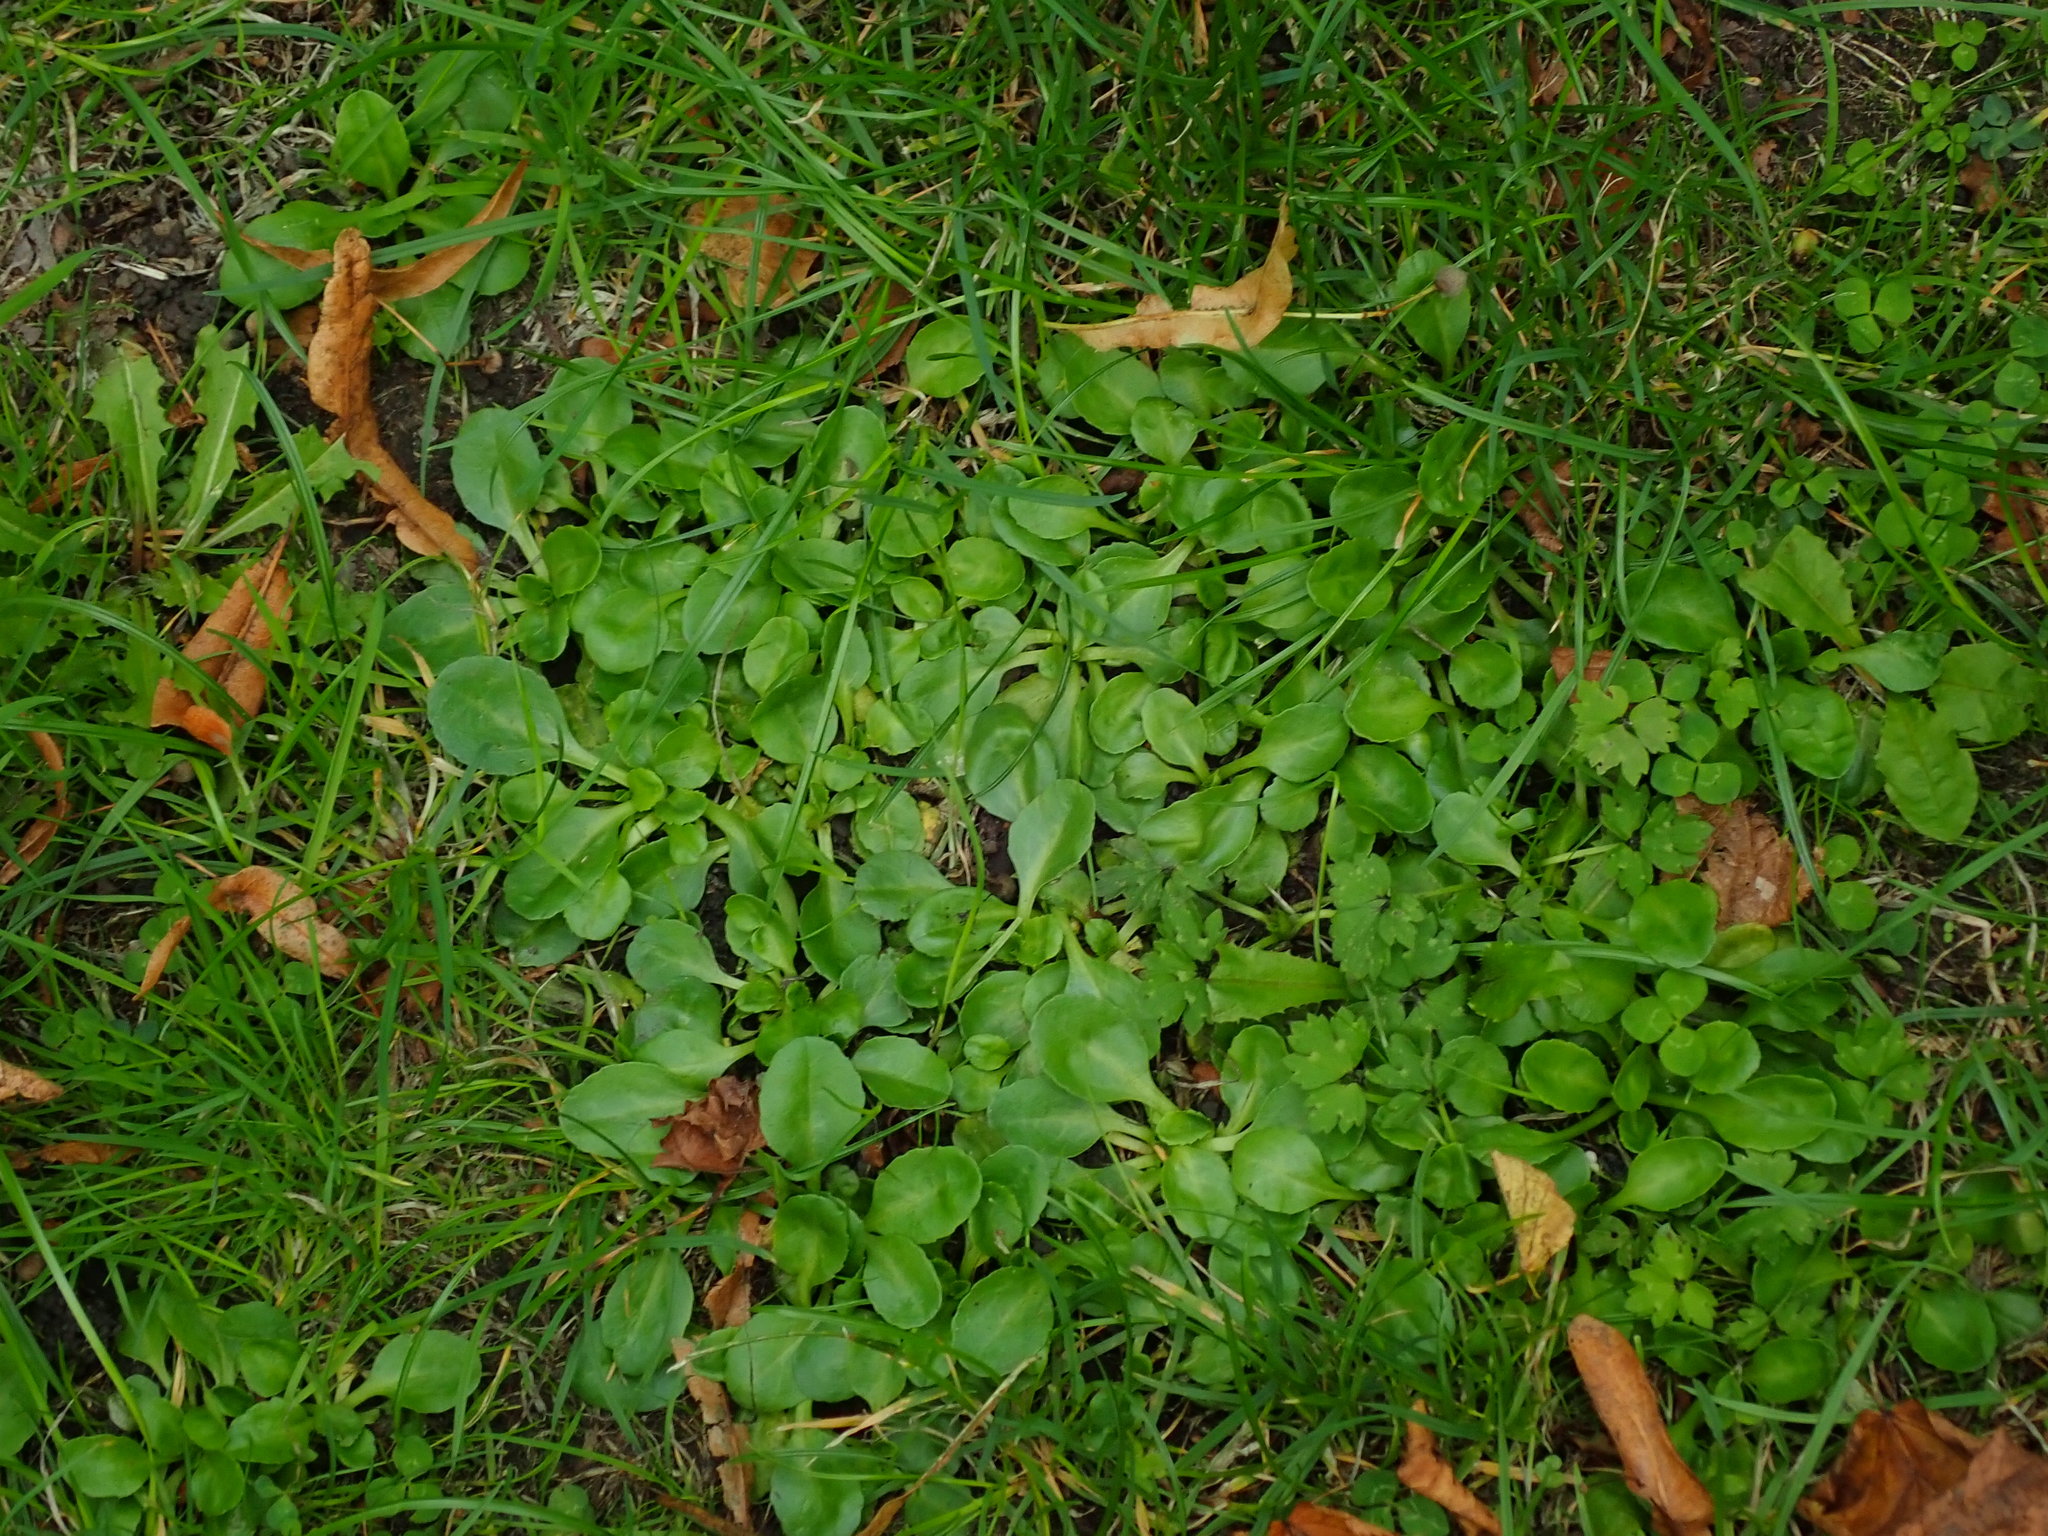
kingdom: Plantae
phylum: Tracheophyta
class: Magnoliopsida
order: Asterales
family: Asteraceae
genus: Bellis
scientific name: Bellis perennis
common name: Lawndaisy
